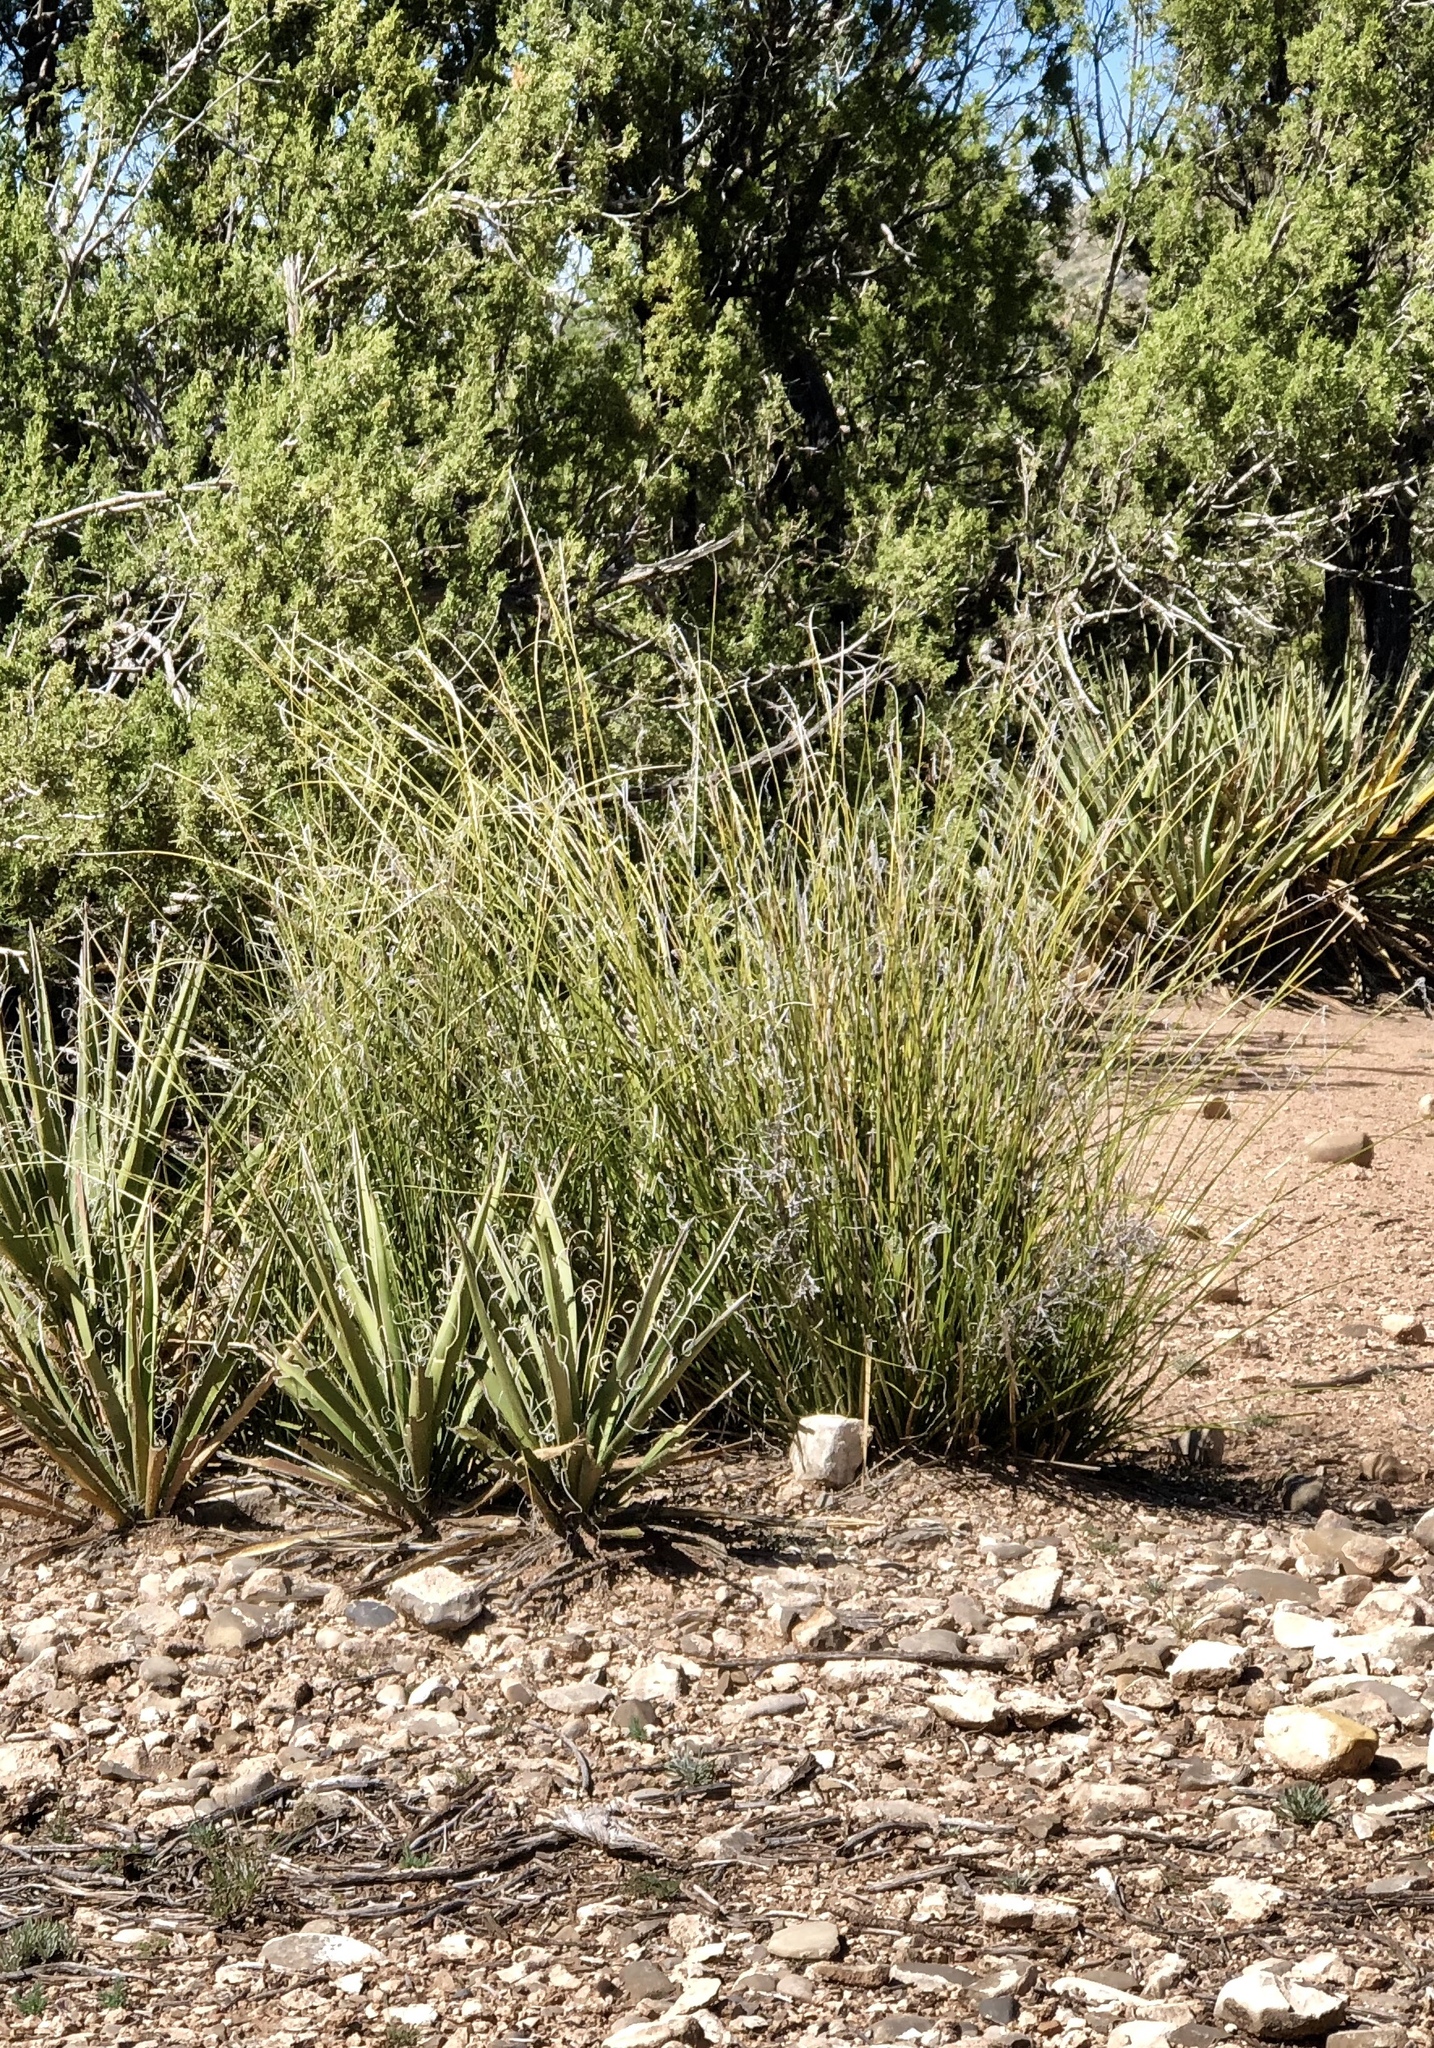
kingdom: Plantae
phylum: Tracheophyta
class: Liliopsida
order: Asparagales
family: Asparagaceae
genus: Nolina
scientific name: Nolina microcarpa
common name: Bear-grass
